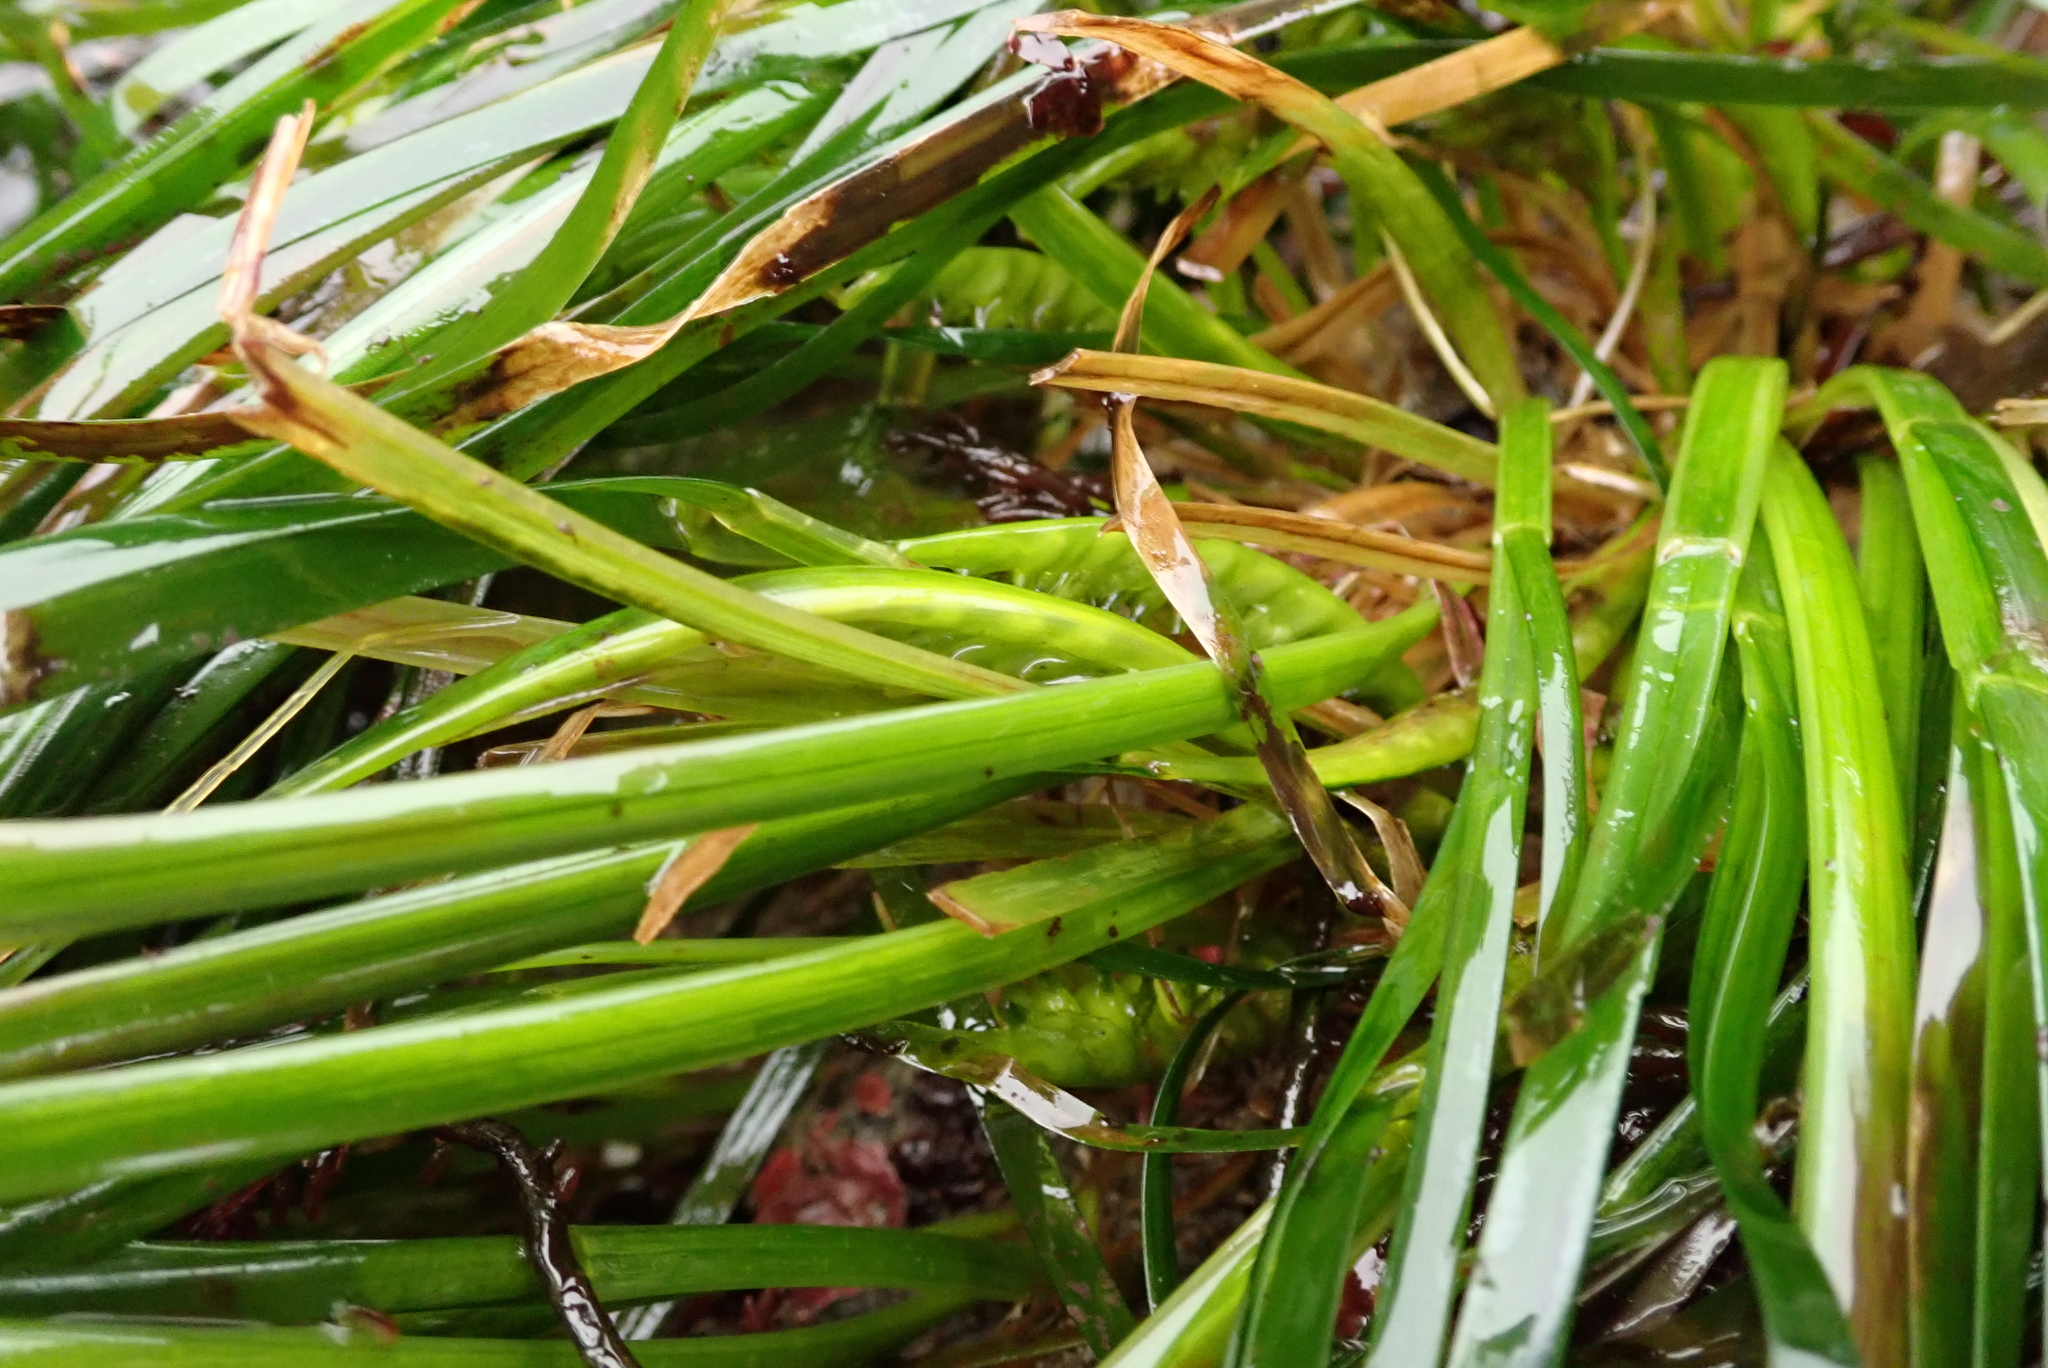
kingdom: Plantae
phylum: Tracheophyta
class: Liliopsida
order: Alismatales
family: Zosteraceae
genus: Phyllospadix
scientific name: Phyllospadix scouleri
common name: Species code: ps
